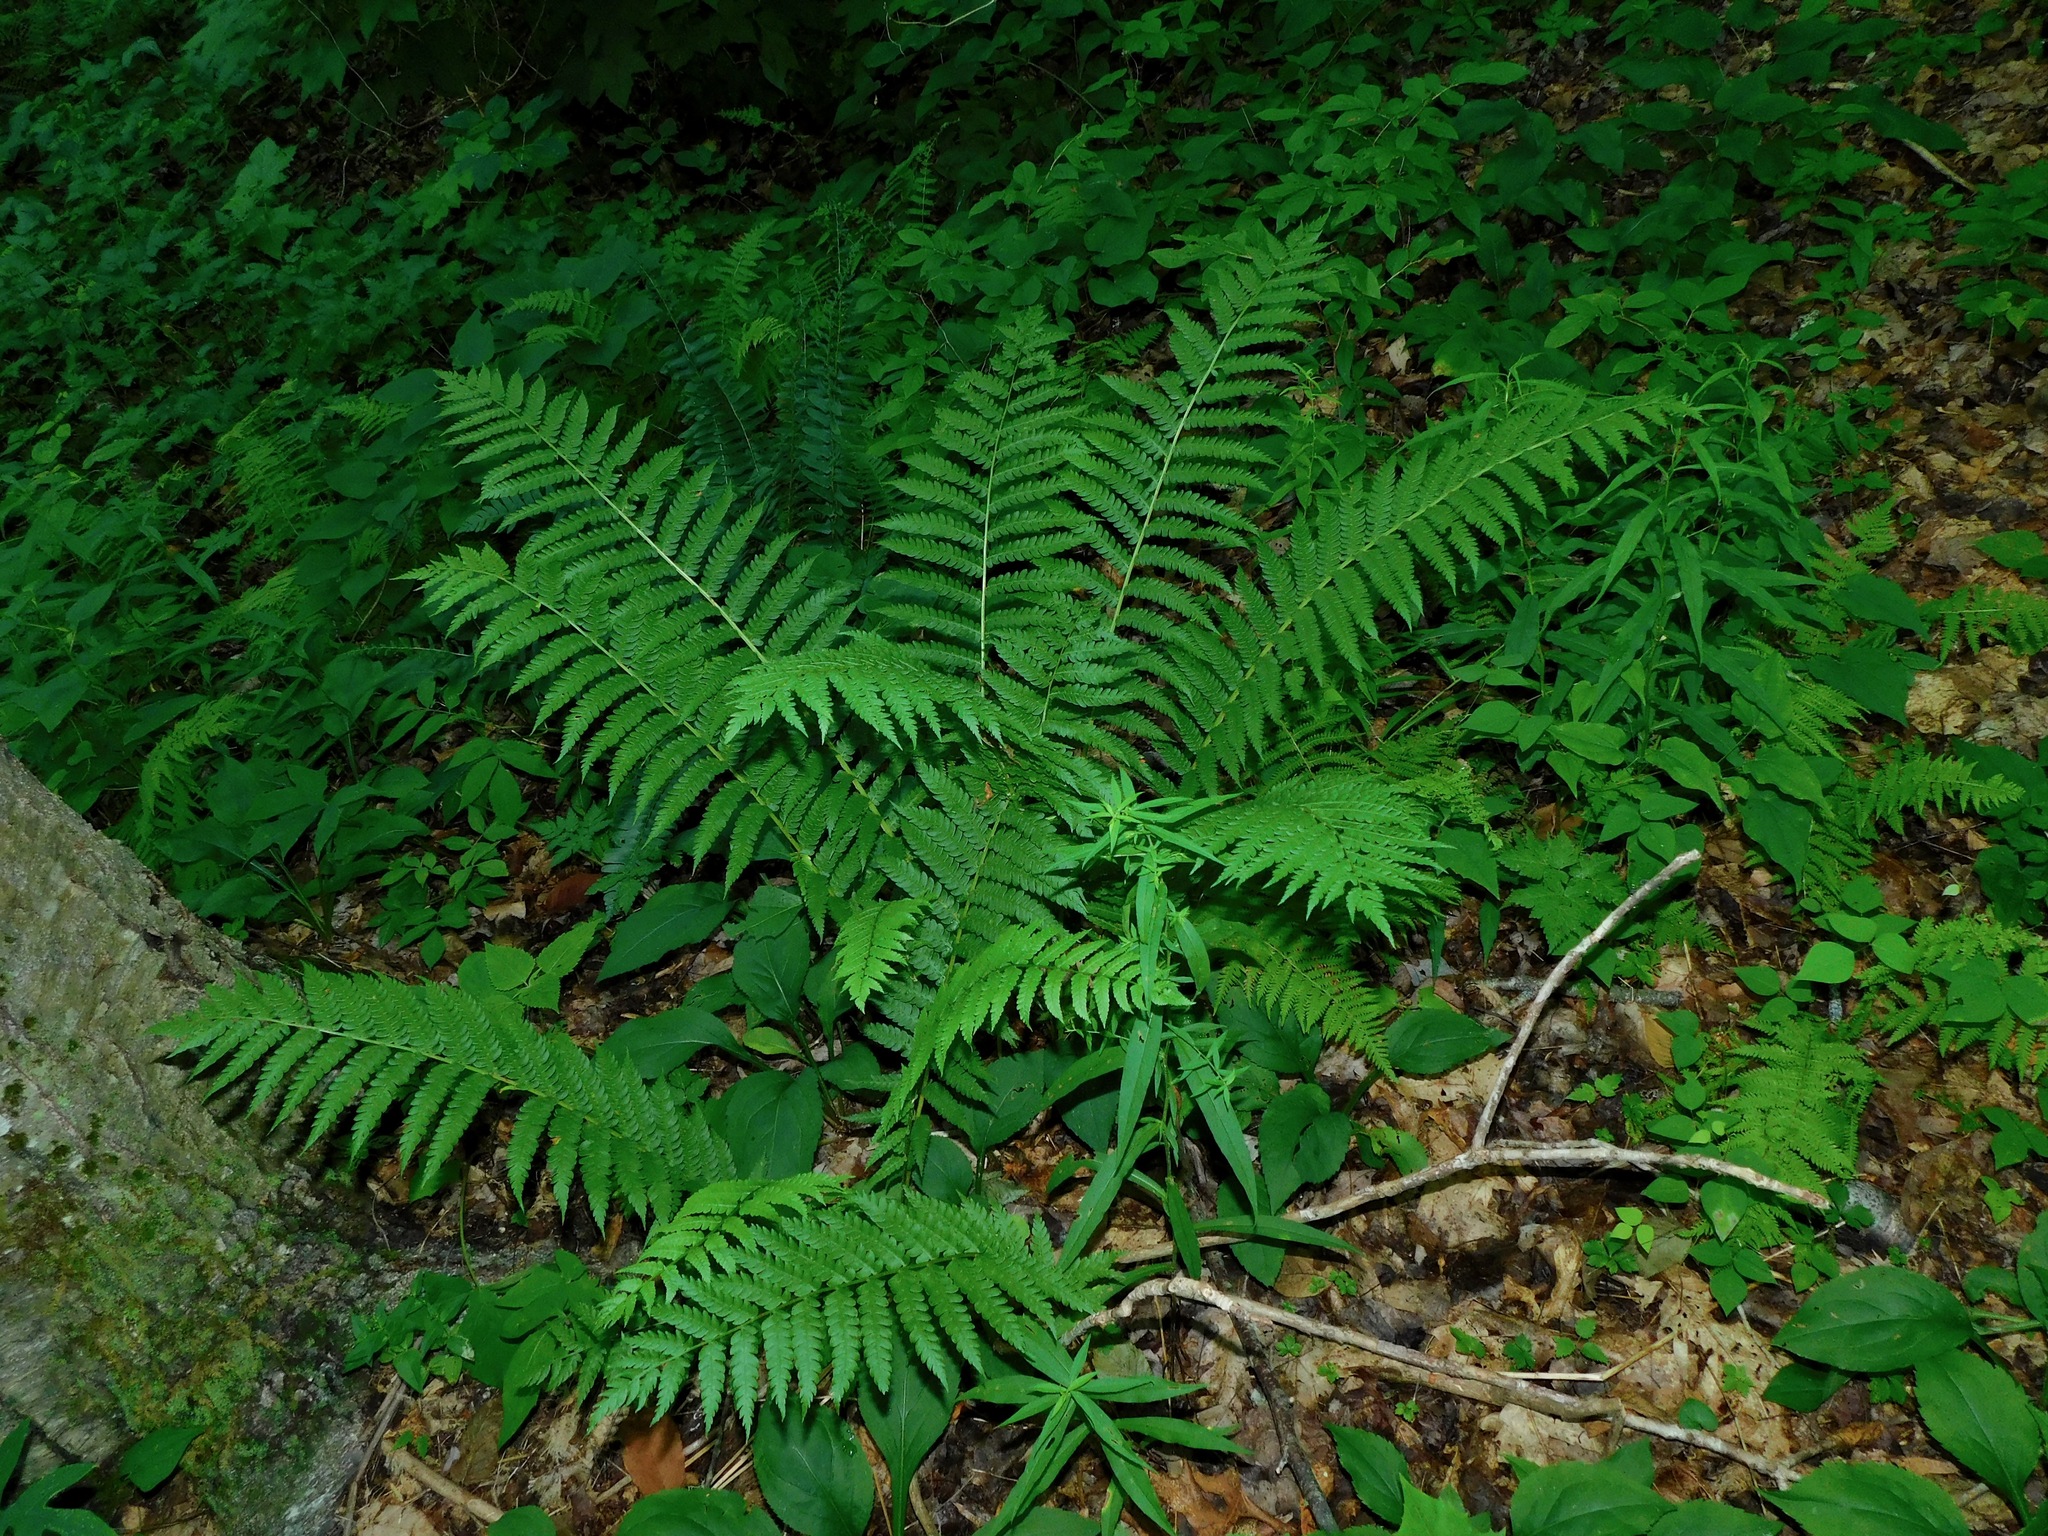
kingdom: Plantae
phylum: Tracheophyta
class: Polypodiopsida
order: Osmundales
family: Osmundaceae
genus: Osmundastrum
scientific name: Osmundastrum cinnamomeum
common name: Cinnamon fern
